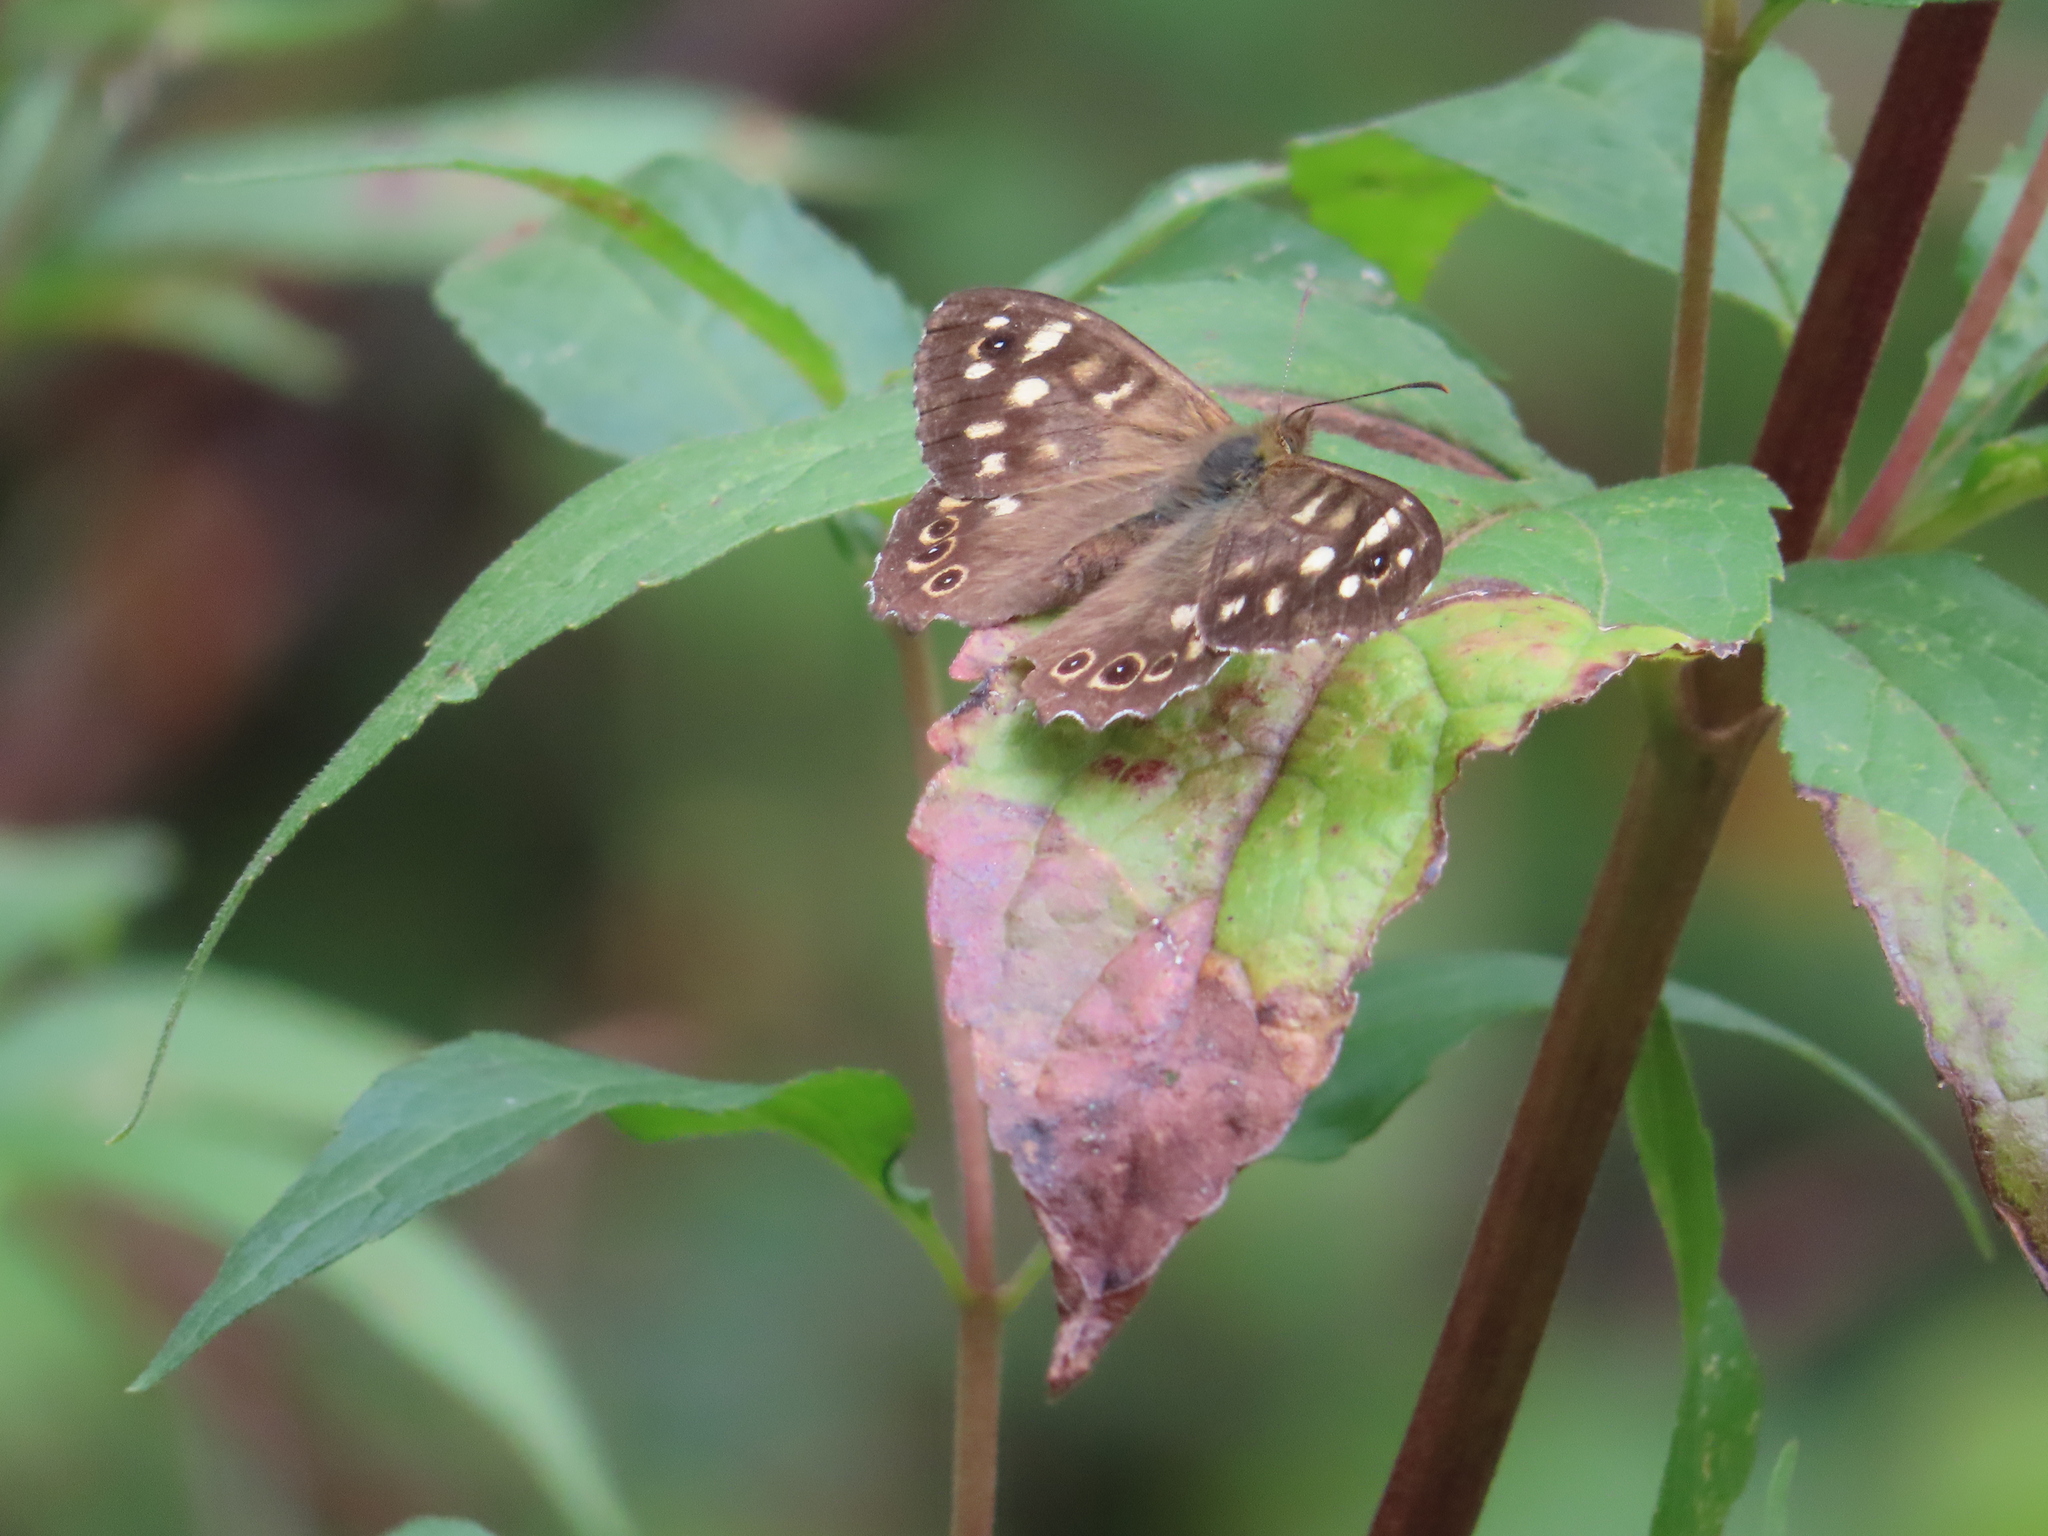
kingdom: Animalia
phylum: Arthropoda
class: Insecta
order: Lepidoptera
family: Nymphalidae
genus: Pararge
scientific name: Pararge aegeria
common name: Speckled wood
